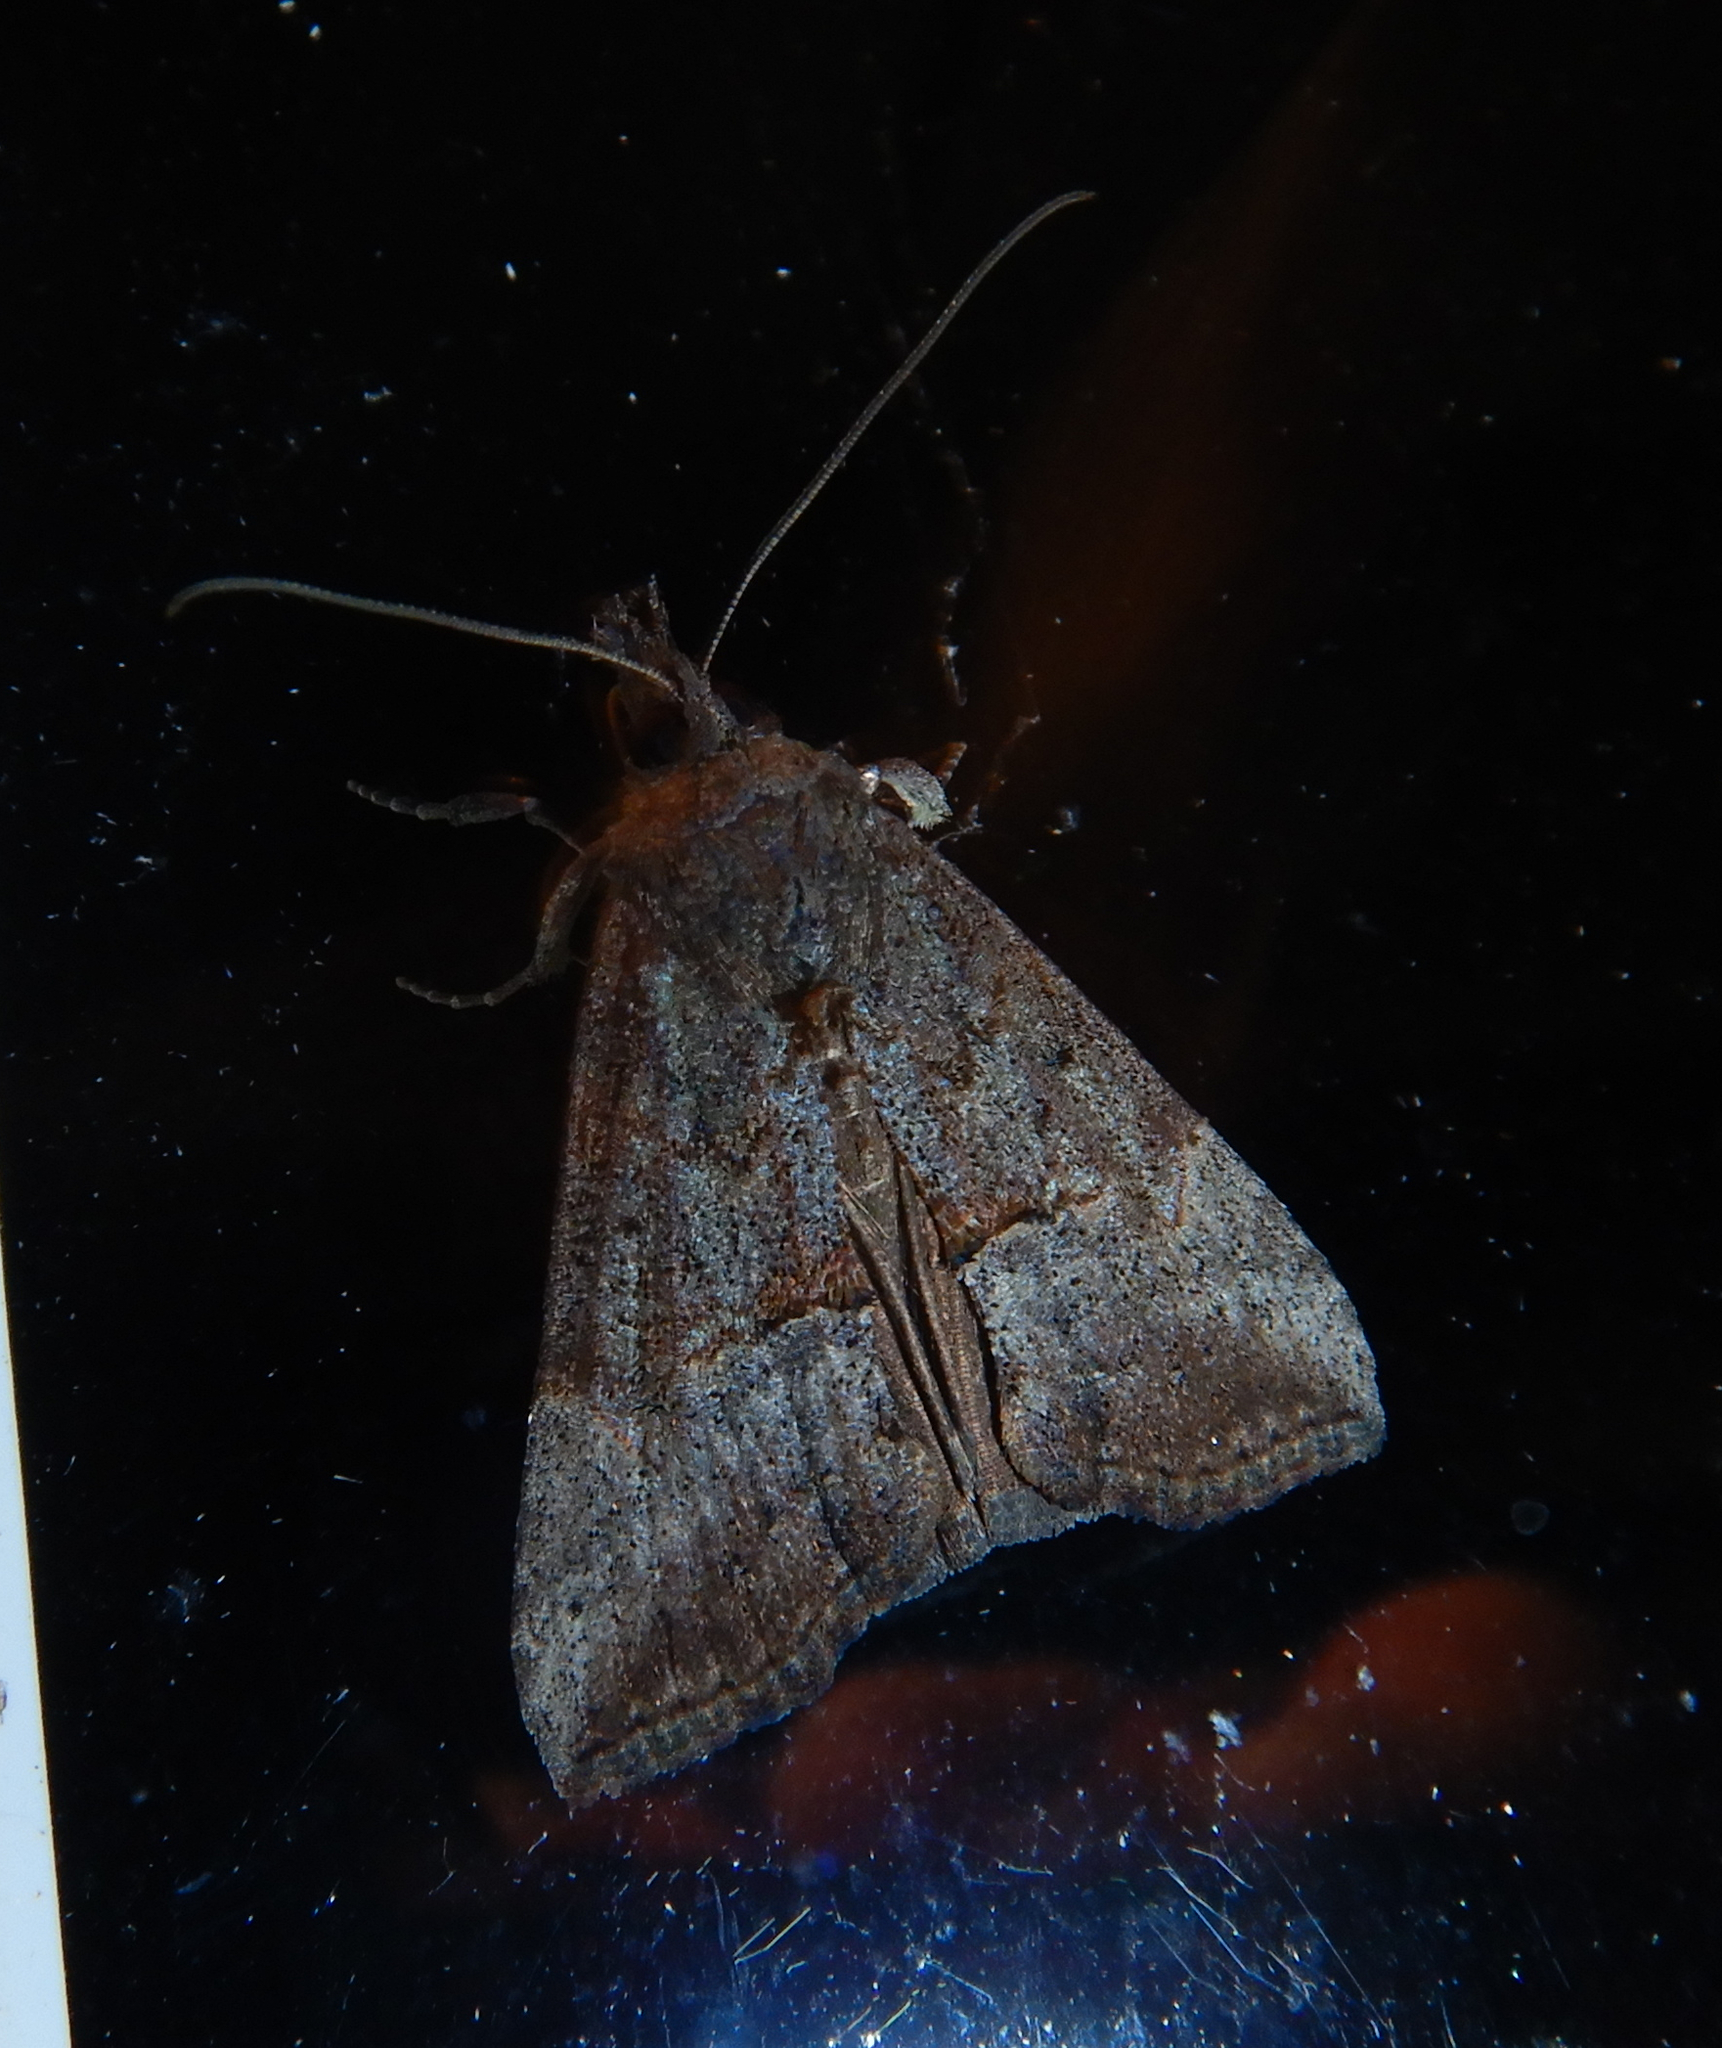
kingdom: Animalia
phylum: Arthropoda
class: Insecta
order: Lepidoptera
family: Erebidae
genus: Hypena
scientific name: Hypena scabra
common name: Green cloverworm
